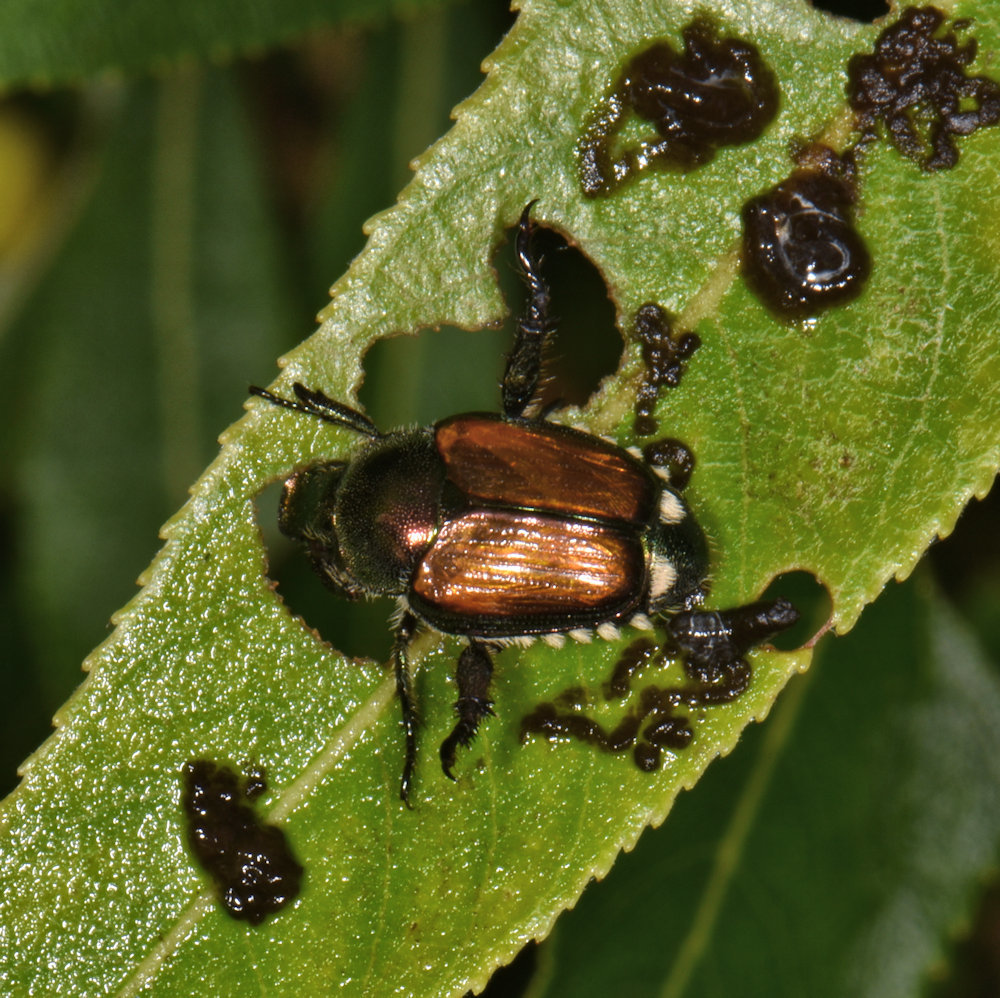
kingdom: Animalia
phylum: Arthropoda
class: Insecta
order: Coleoptera
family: Scarabaeidae
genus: Popillia
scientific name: Popillia japonica
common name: Japanese beetle
